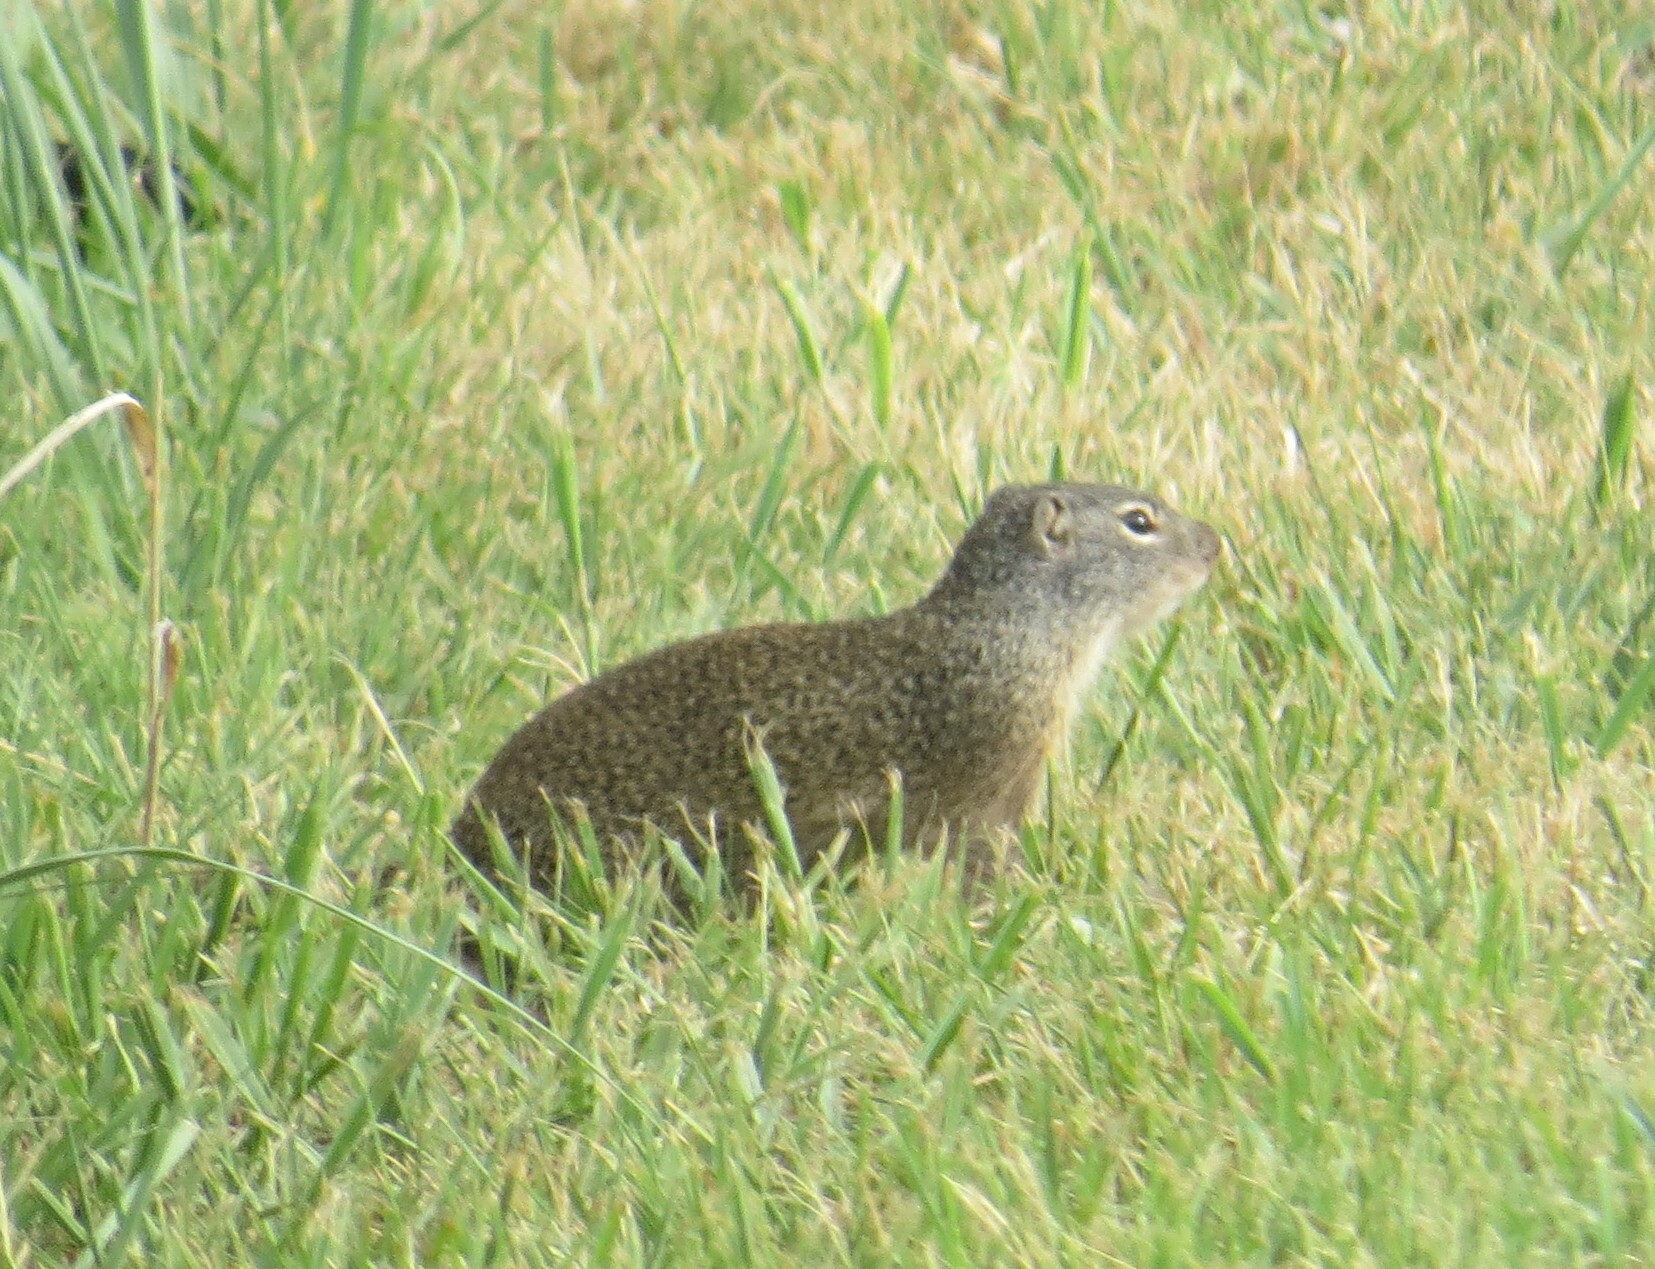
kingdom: Animalia
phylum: Chordata
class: Mammalia
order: Rodentia
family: Sciuridae
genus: Poliocitellus
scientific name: Poliocitellus franklinii
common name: Franklin's ground squirrel
